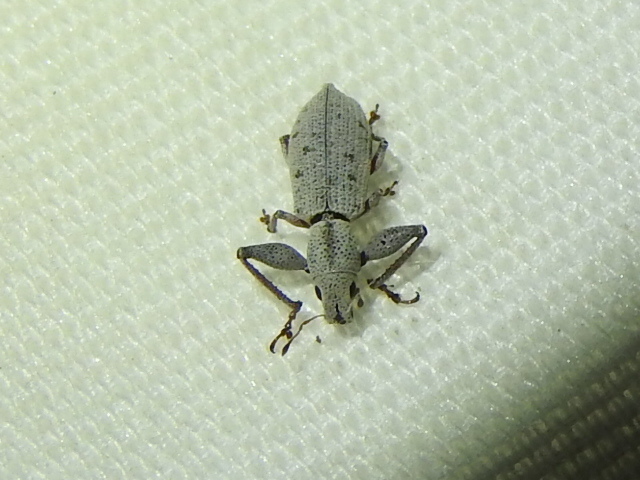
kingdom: Animalia
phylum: Arthropoda
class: Insecta
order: Coleoptera
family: Curculionidae
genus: Pandeleteius
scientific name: Pandeleteius nodifer
